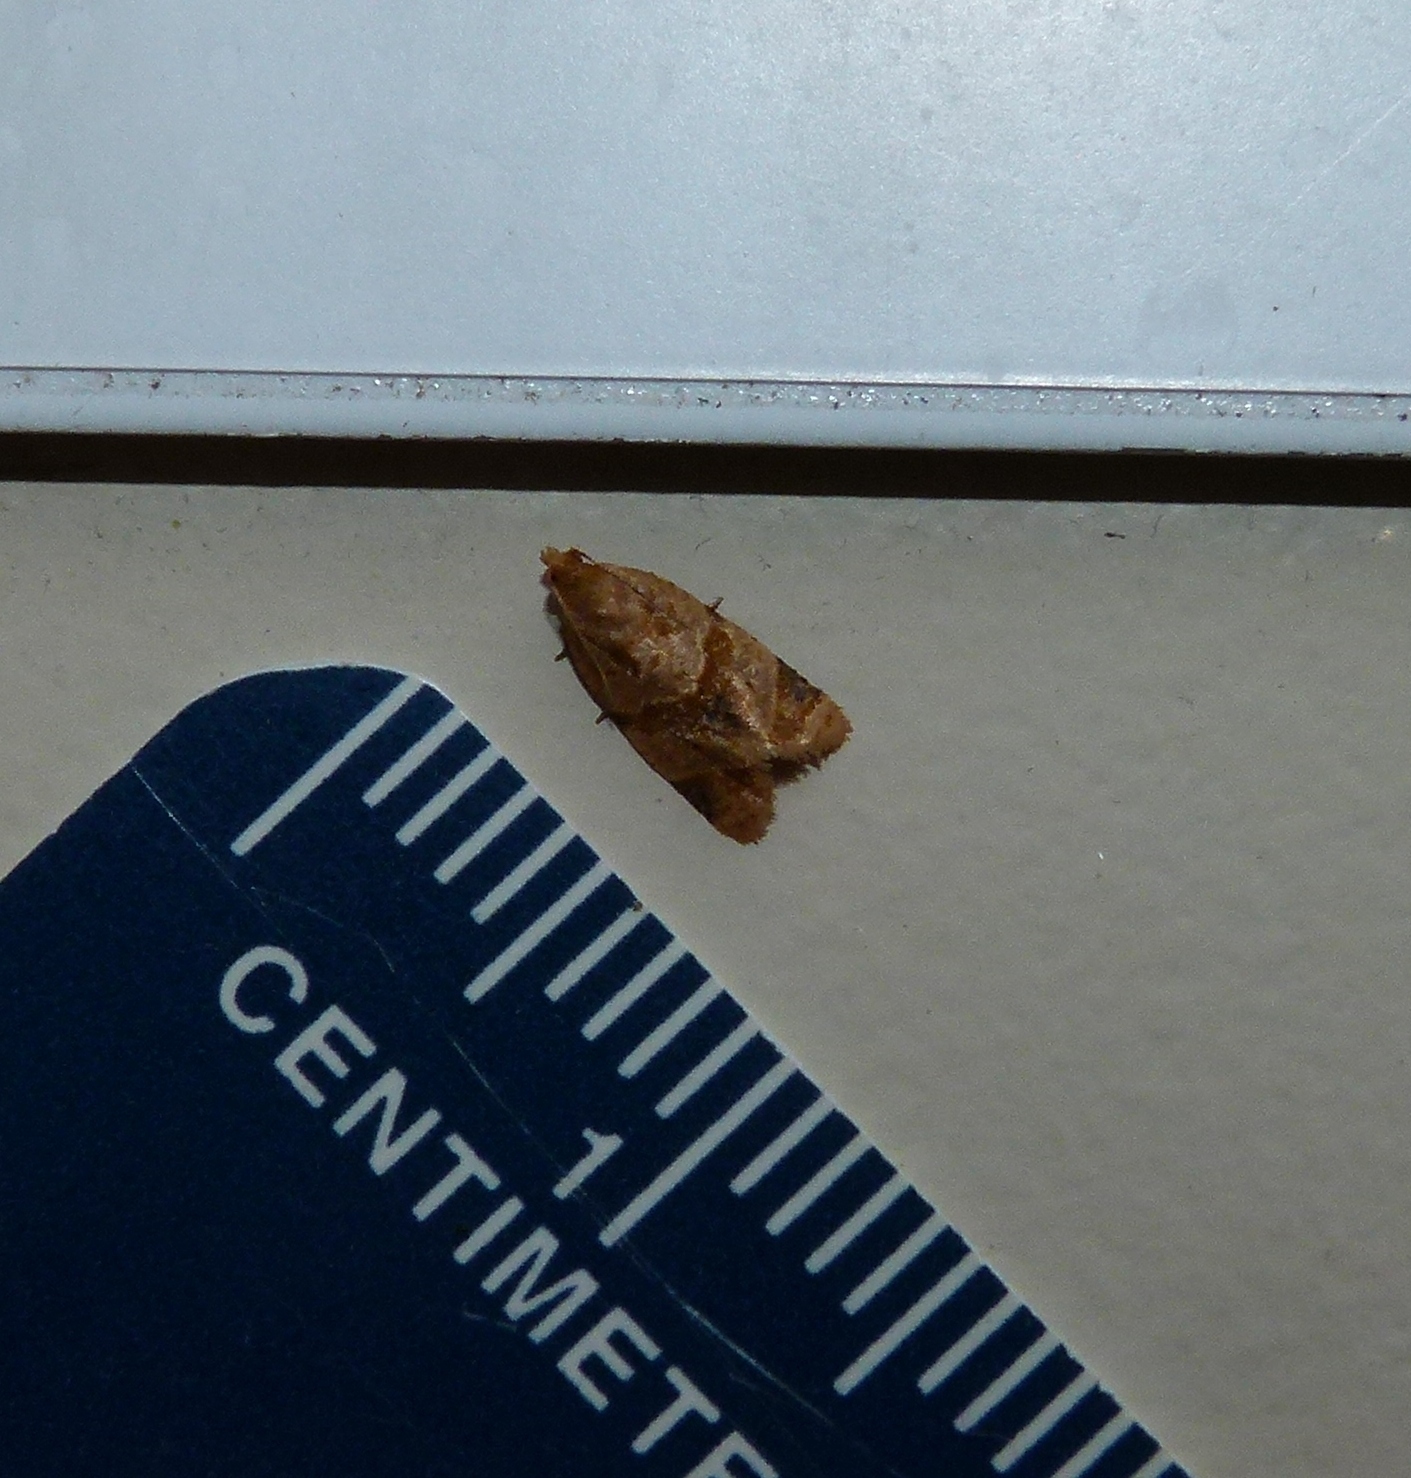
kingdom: Animalia
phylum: Arthropoda
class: Insecta
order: Lepidoptera
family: Tortricidae
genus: Clepsis
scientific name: Clepsis peritana
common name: Garden tortrix
